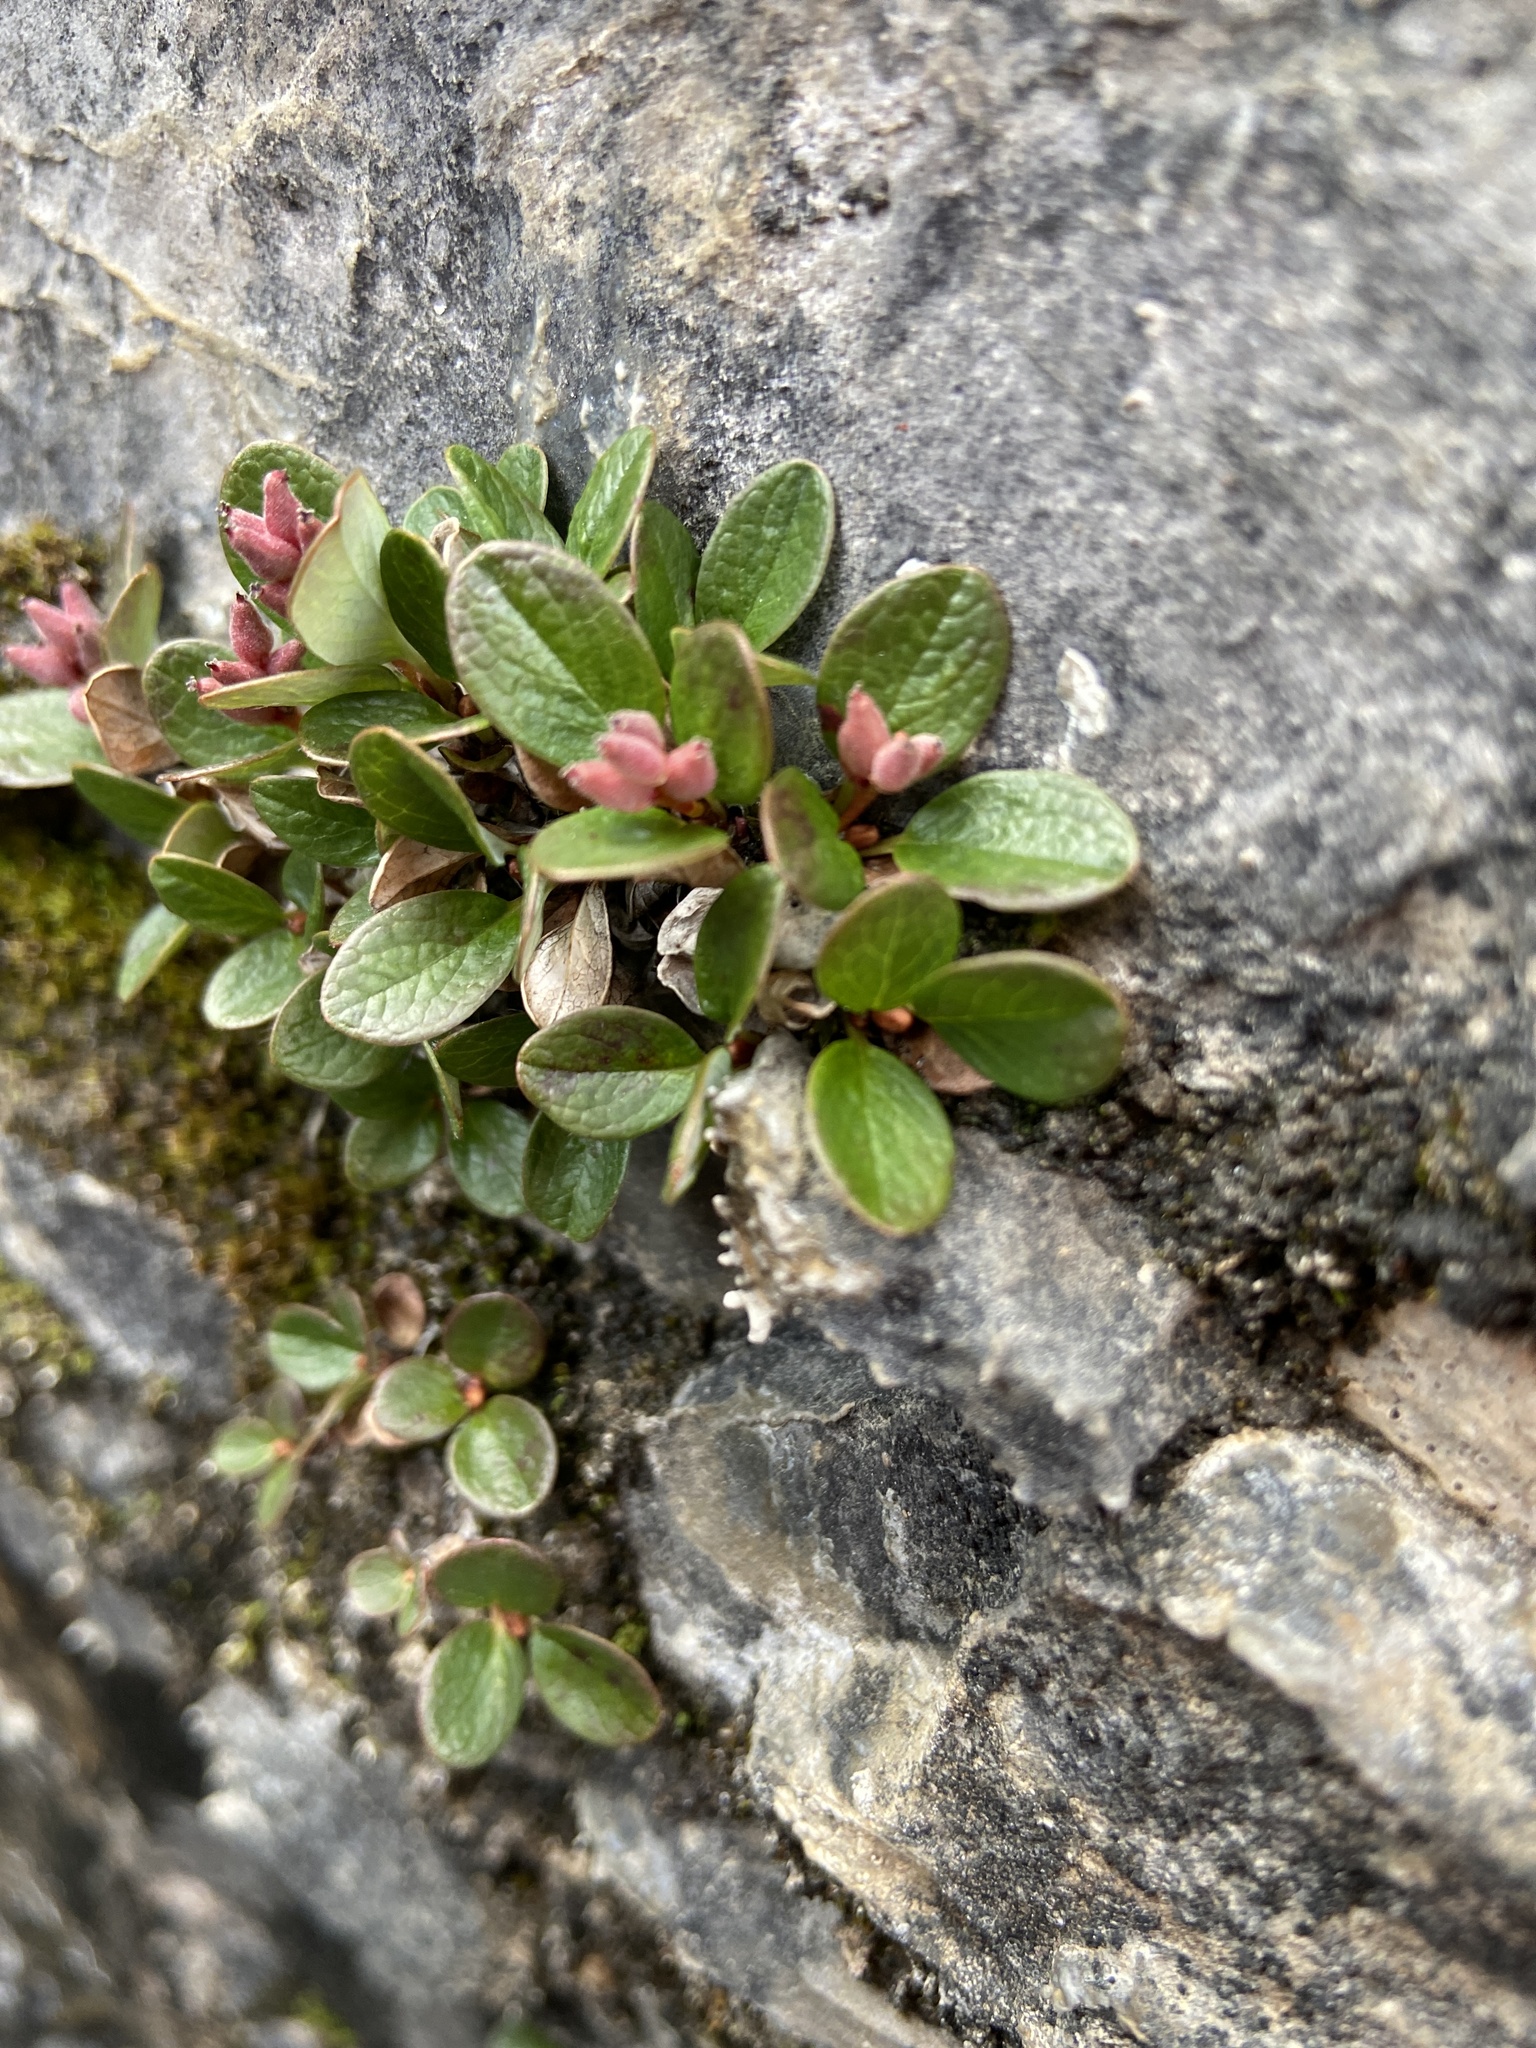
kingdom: Plantae
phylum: Tracheophyta
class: Magnoliopsida
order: Malpighiales
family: Salicaceae
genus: Salix
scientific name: Salix nivalis
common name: Dwarf snow willow
